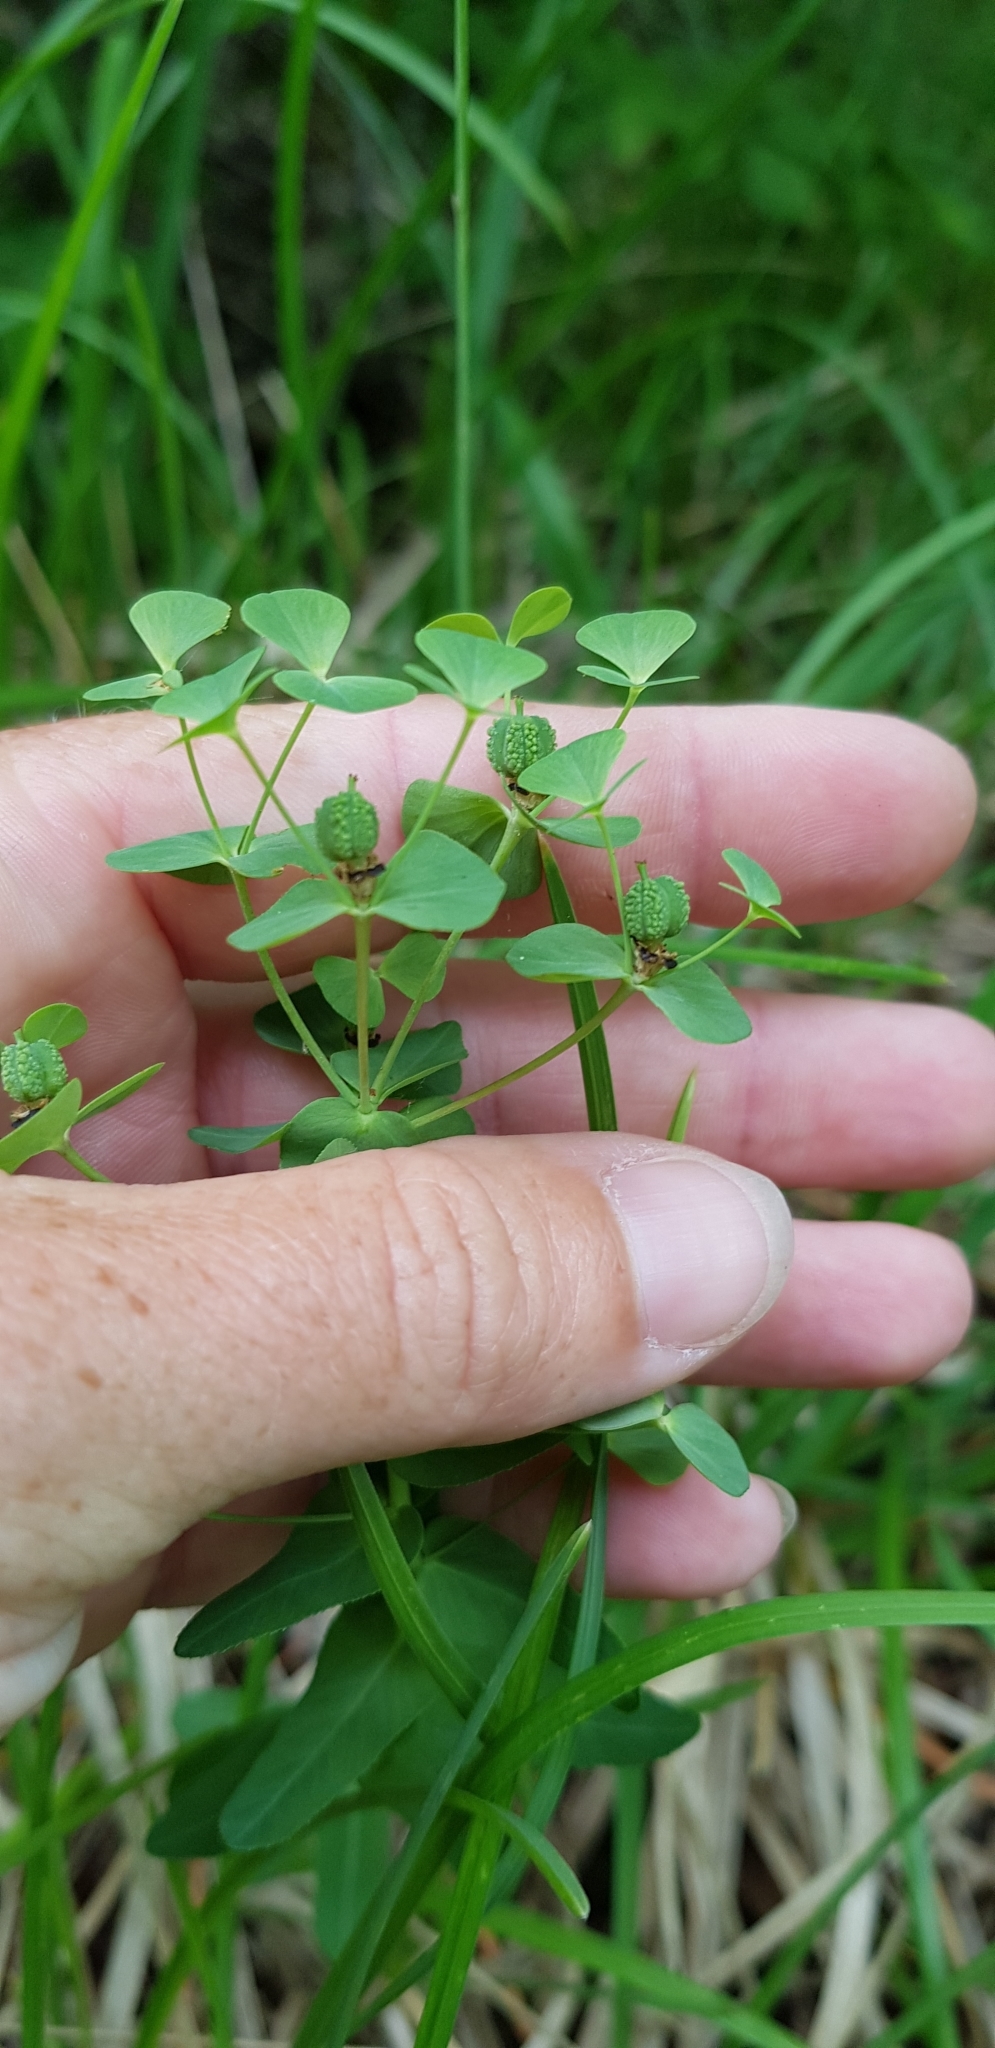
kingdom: Plantae
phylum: Tracheophyta
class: Magnoliopsida
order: Malpighiales
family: Euphorbiaceae
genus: Euphorbia
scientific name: Euphorbia condylocarpa
